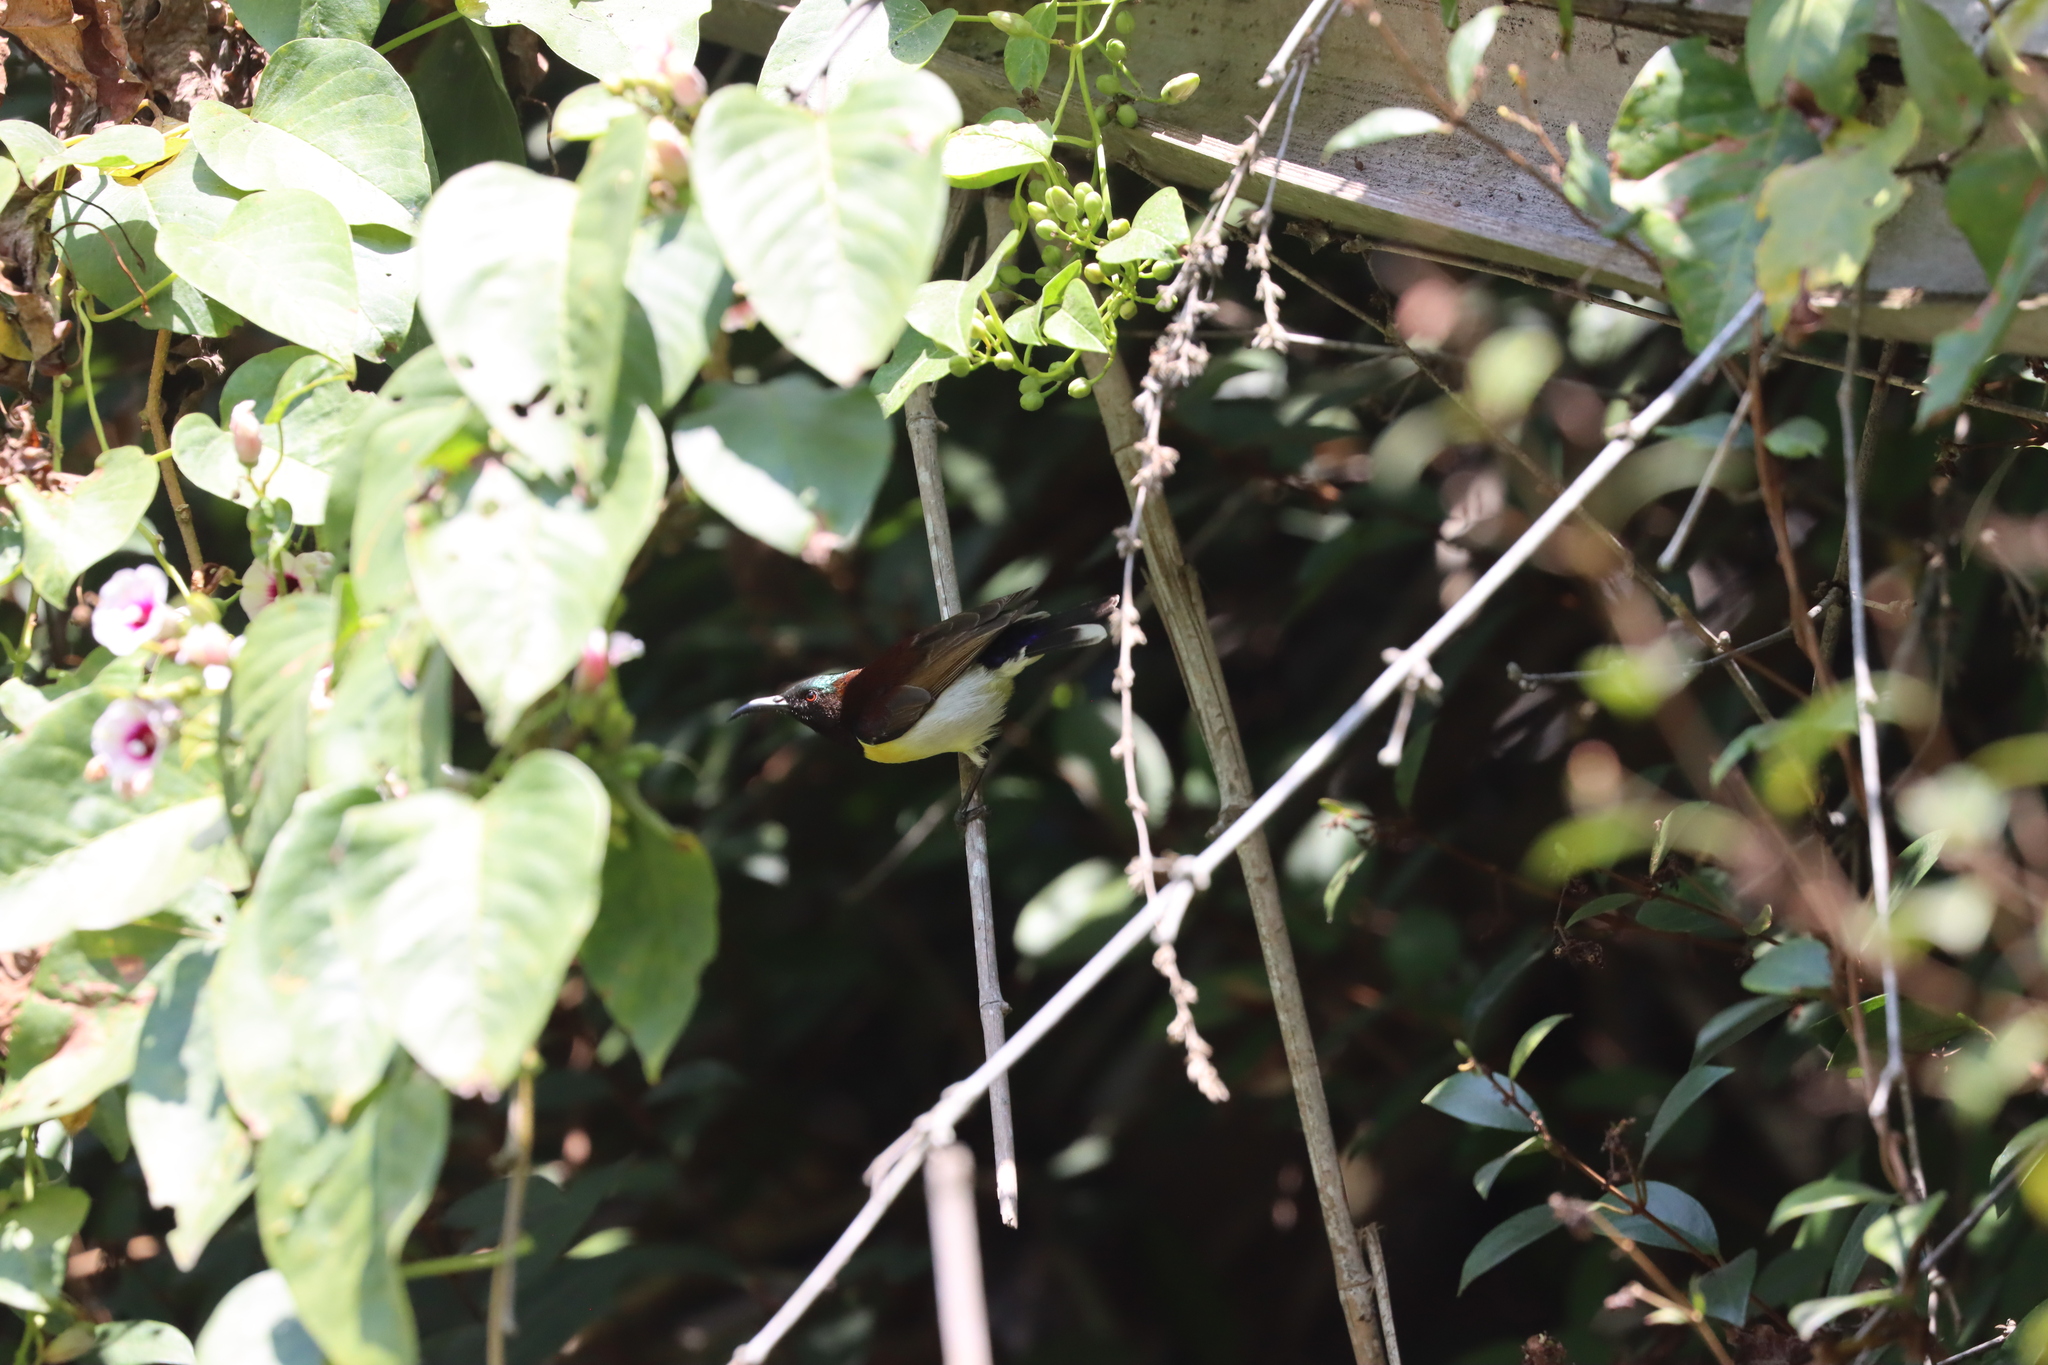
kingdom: Animalia
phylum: Chordata
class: Aves
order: Passeriformes
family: Nectariniidae
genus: Leptocoma
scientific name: Leptocoma zeylonica
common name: Purple-rumped sunbird
